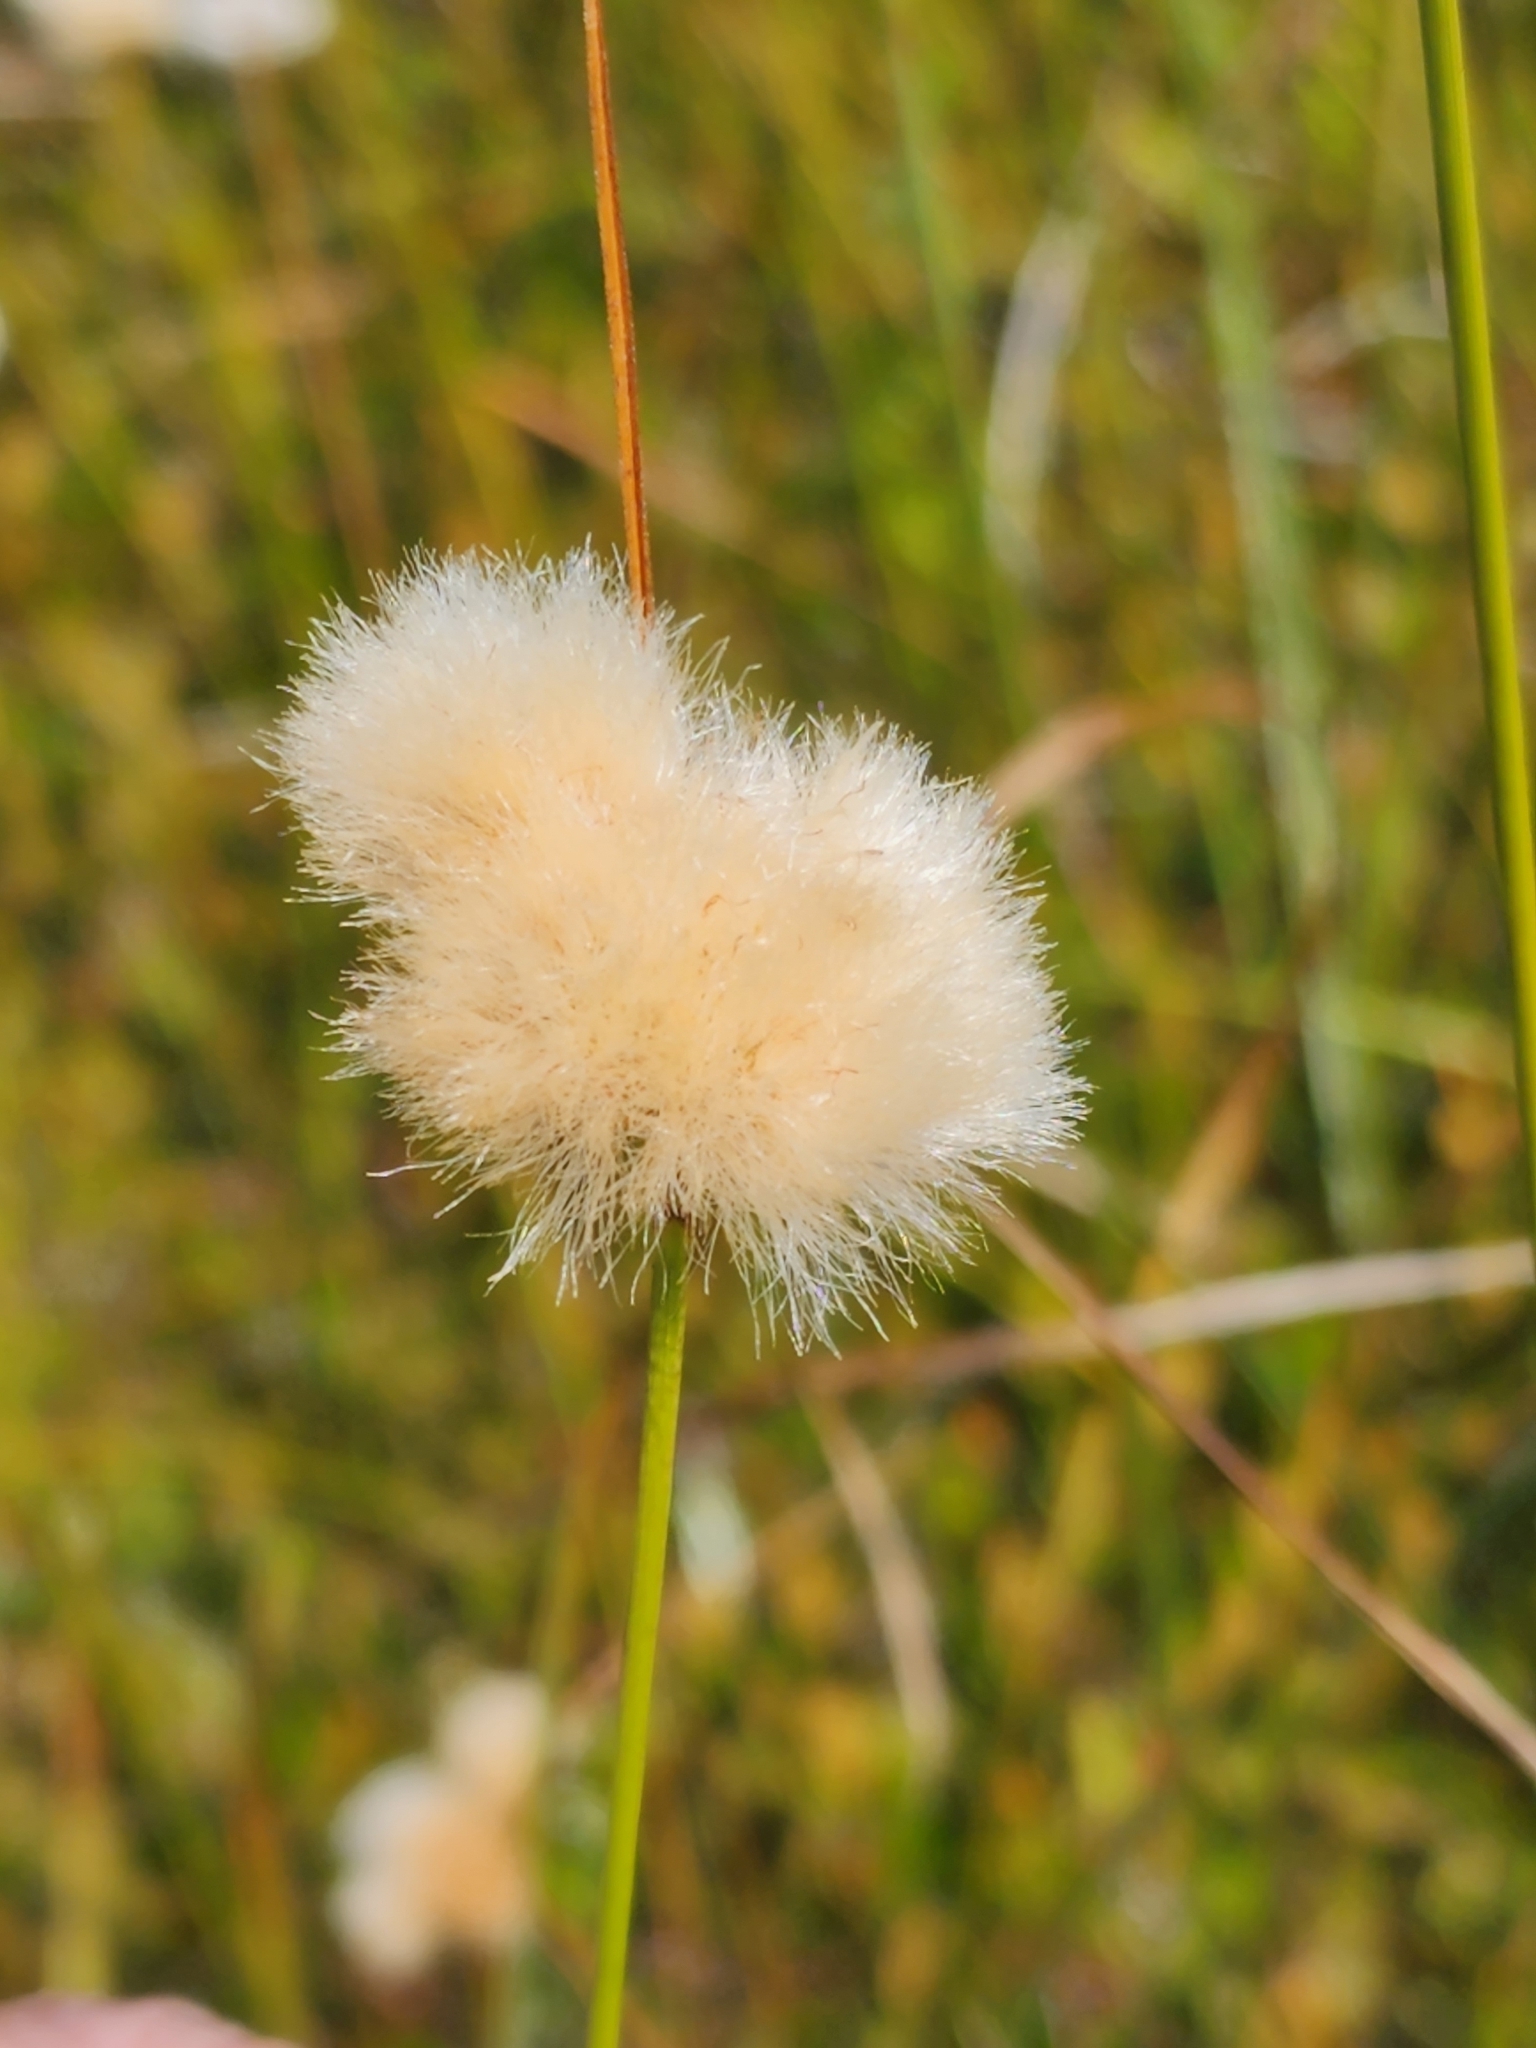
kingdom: Plantae
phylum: Tracheophyta
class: Liliopsida
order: Poales
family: Cyperaceae
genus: Eriophorum
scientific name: Eriophorum virginicum
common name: Tawny cottongrass
